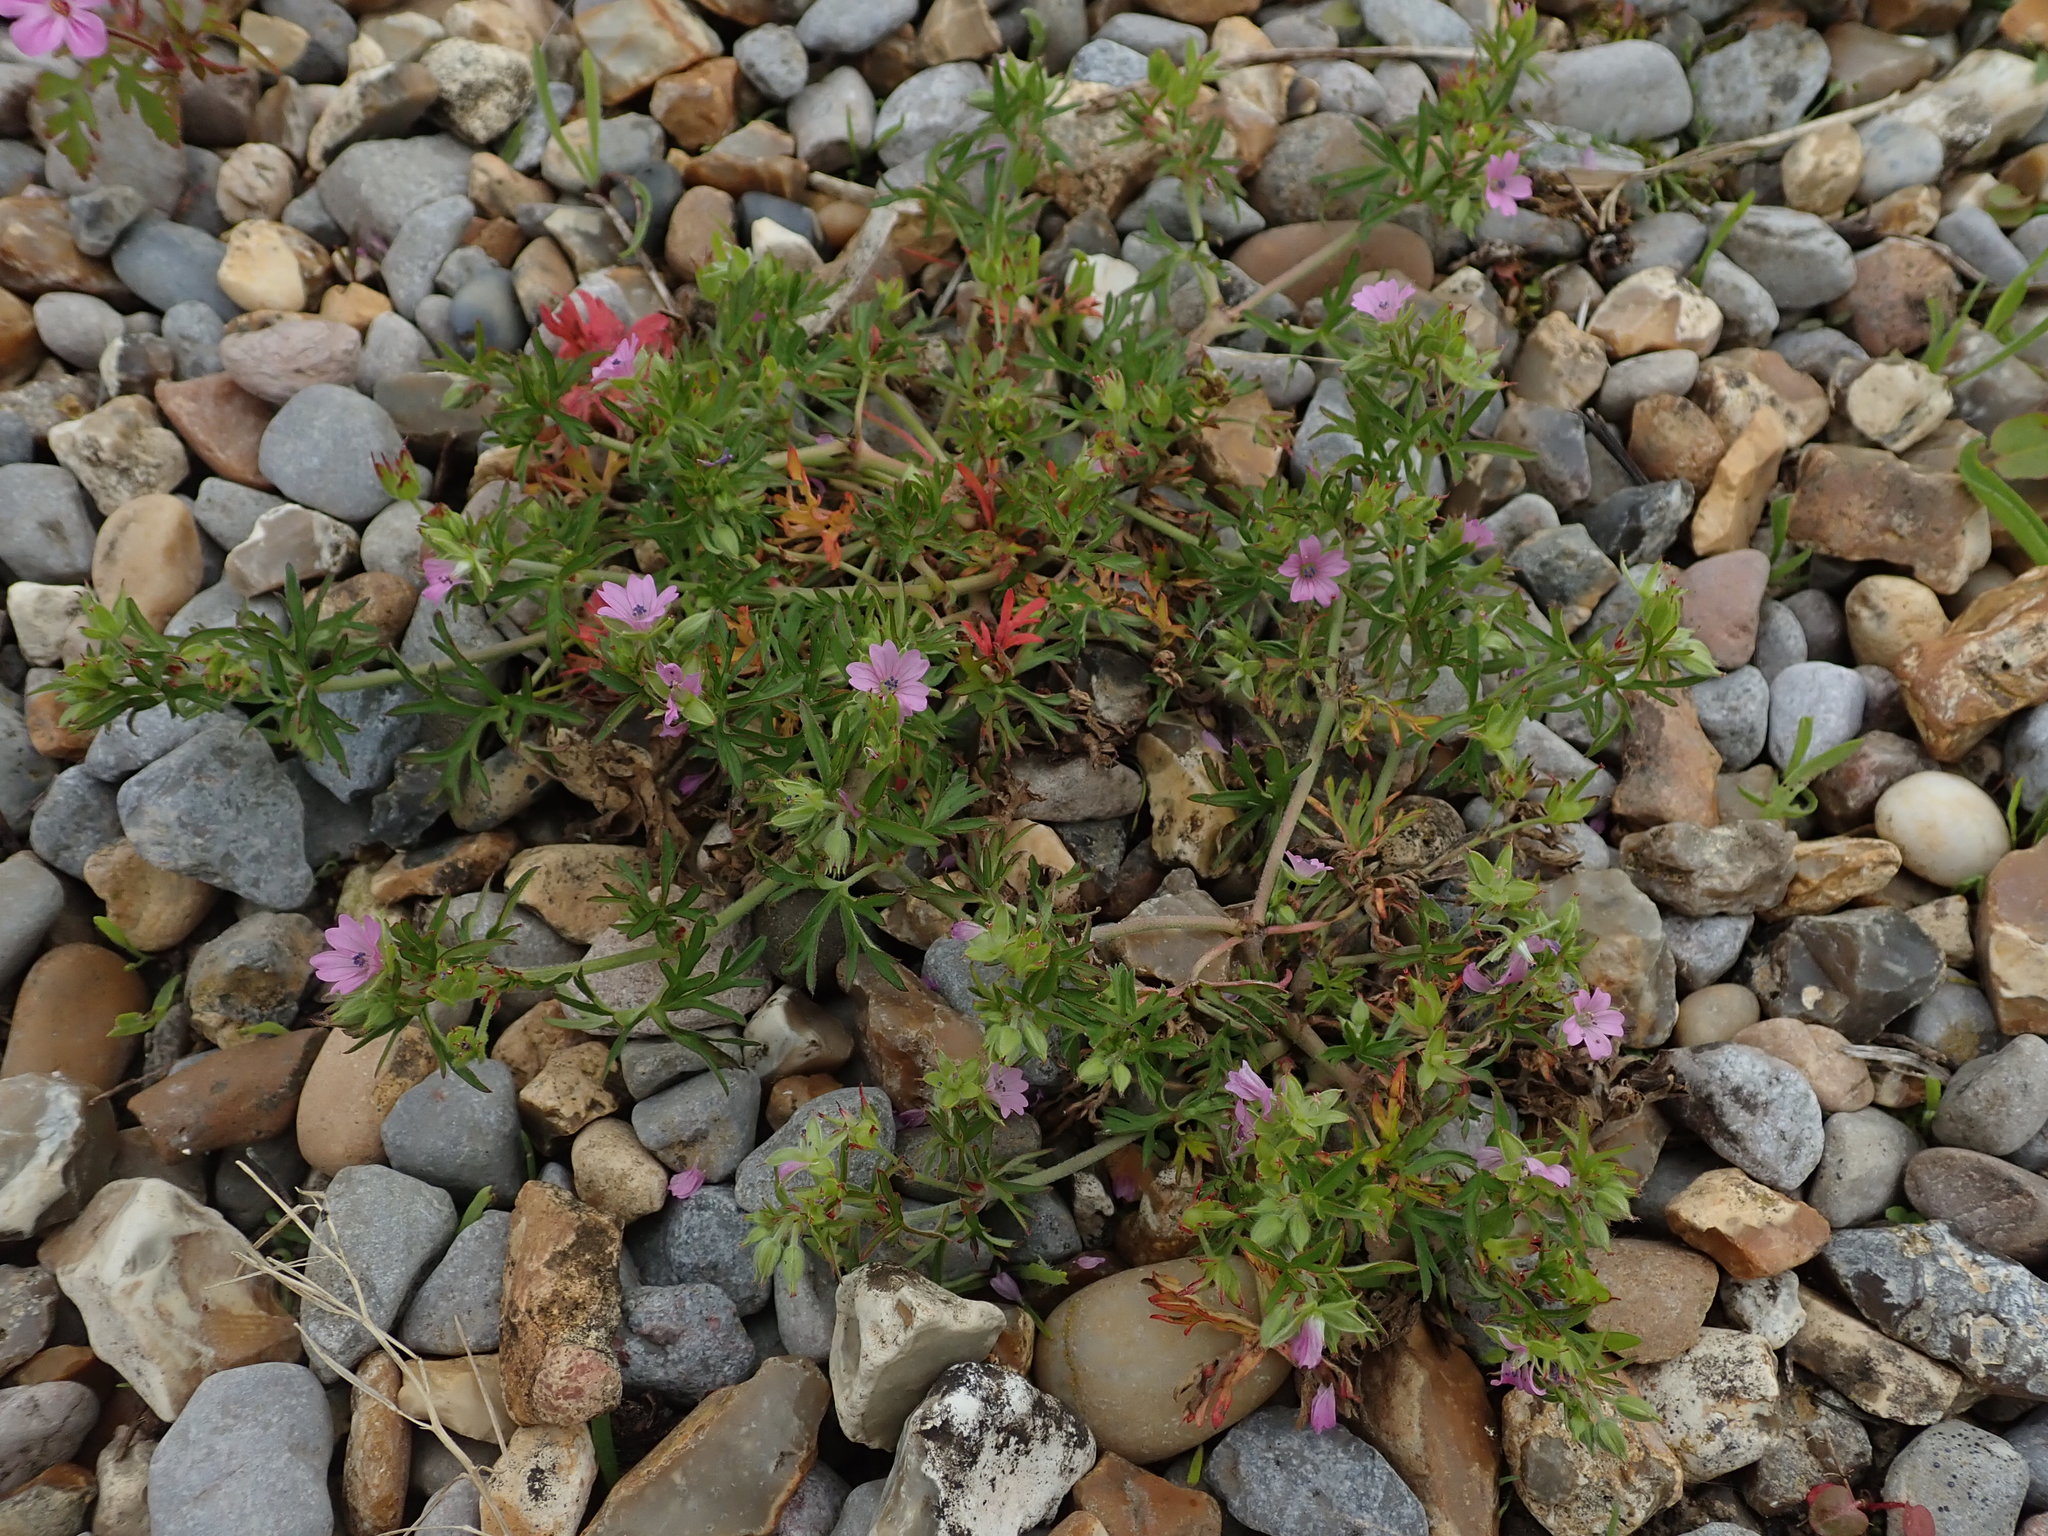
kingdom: Plantae
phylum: Tracheophyta
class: Magnoliopsida
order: Geraniales
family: Geraniaceae
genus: Geranium
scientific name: Geranium dissectum
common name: Cut-leaved crane's-bill
